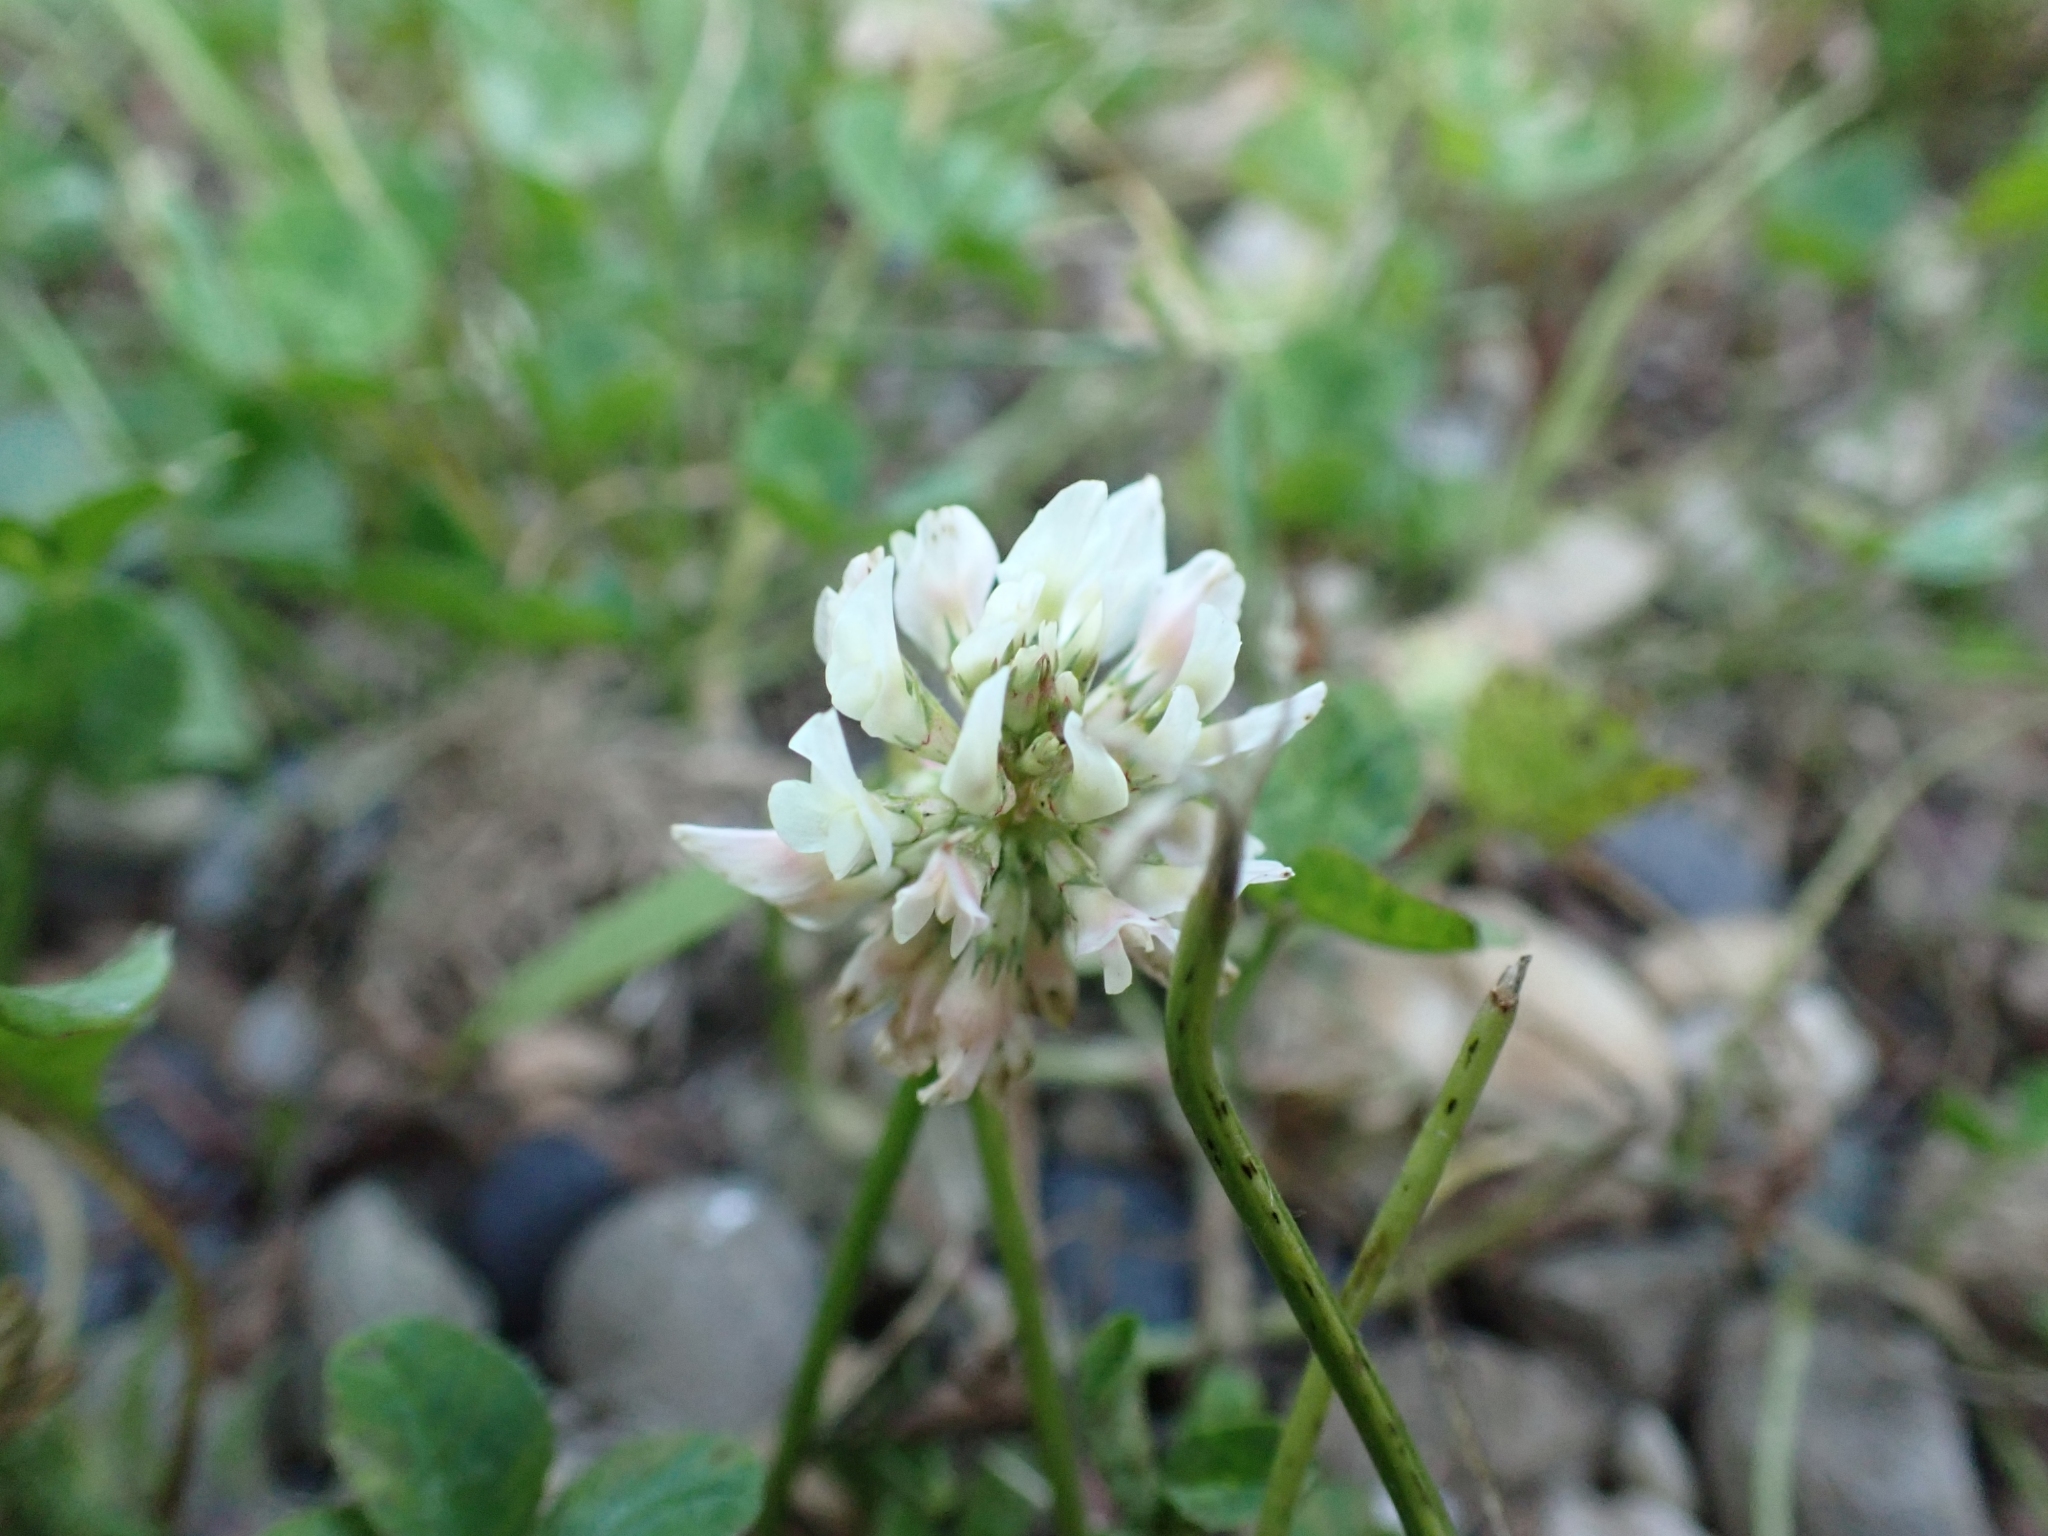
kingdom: Plantae
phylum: Tracheophyta
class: Magnoliopsida
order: Fabales
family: Fabaceae
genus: Trifolium
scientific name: Trifolium repens
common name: White clover
